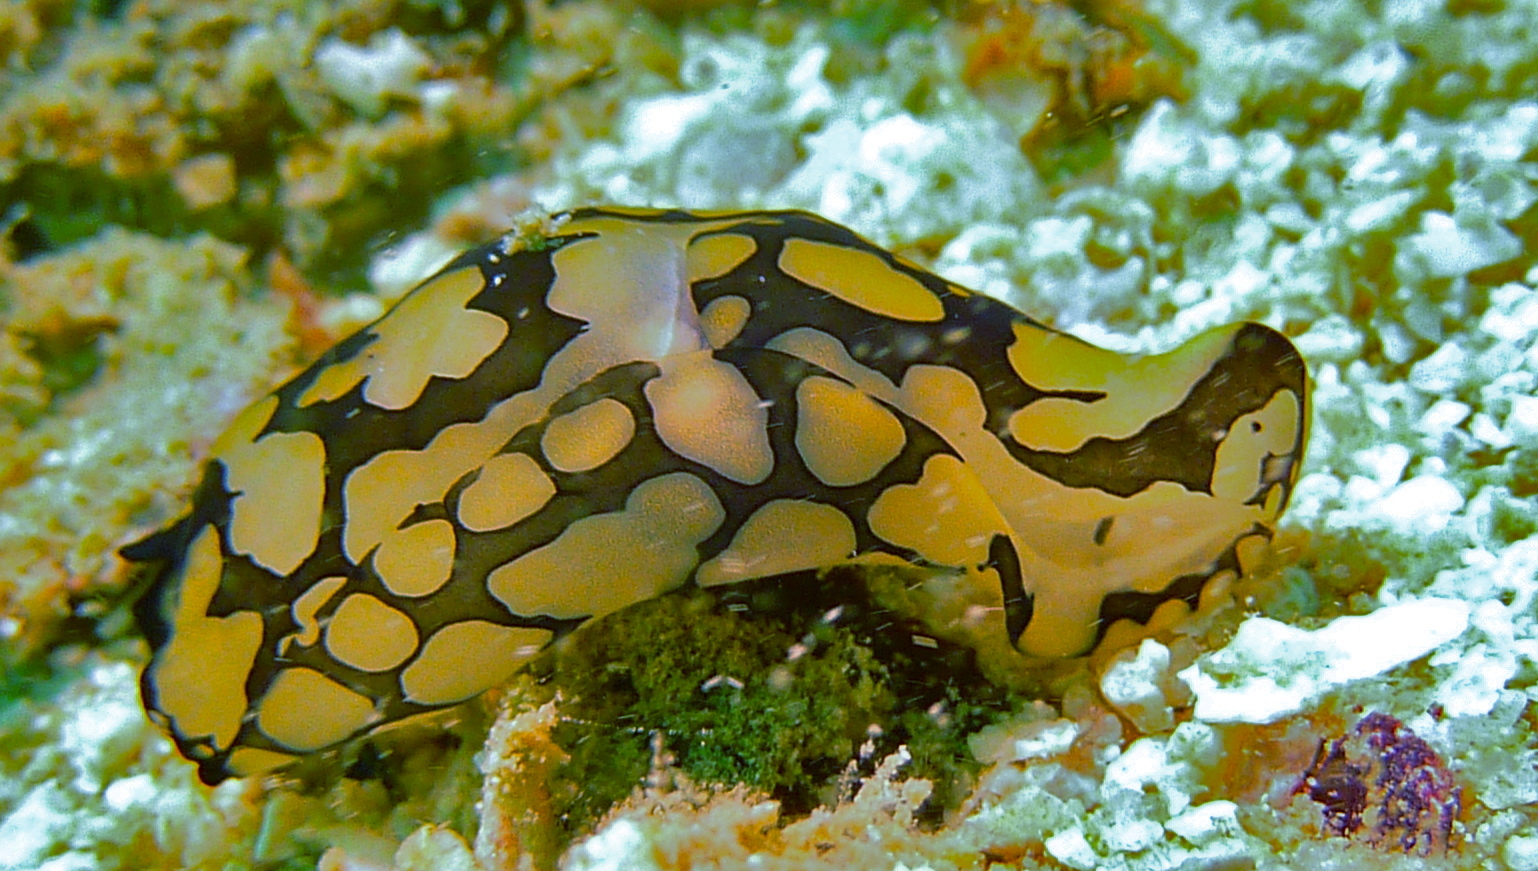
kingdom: Animalia
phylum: Mollusca
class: Gastropoda
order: Cephalaspidea
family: Aglajidae
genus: Tubulophilinopsis
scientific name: Tubulophilinopsis pilsbryi
